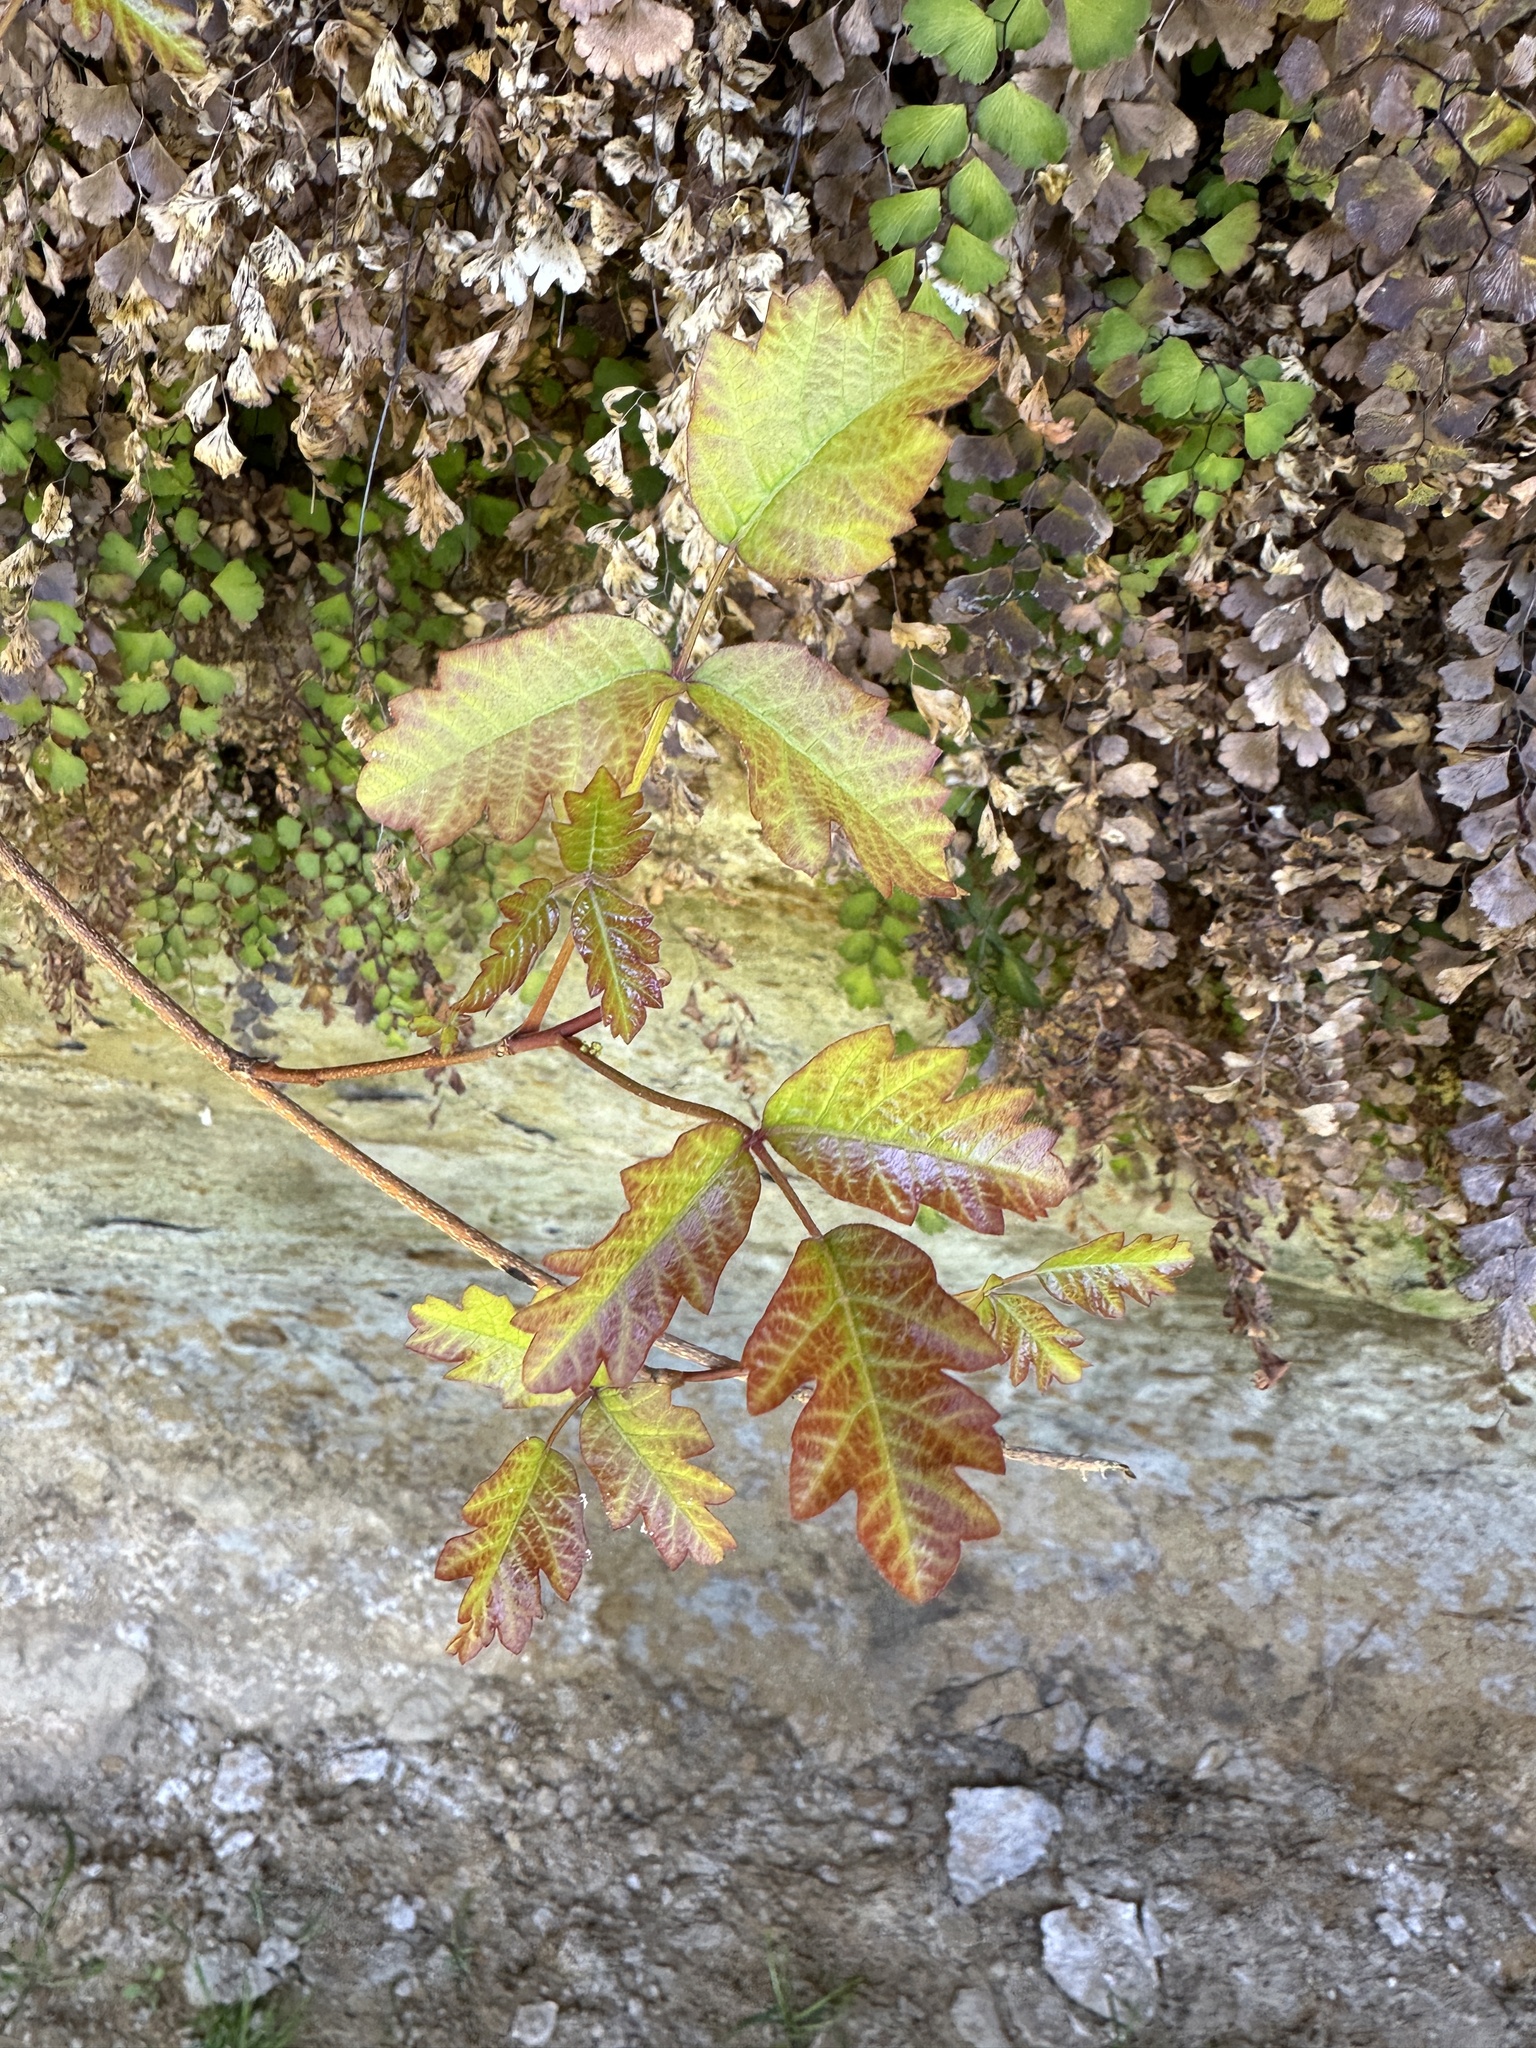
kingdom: Plantae
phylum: Tracheophyta
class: Magnoliopsida
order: Sapindales
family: Anacardiaceae
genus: Toxicodendron
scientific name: Toxicodendron diversilobum
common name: Pacific poison-oak
